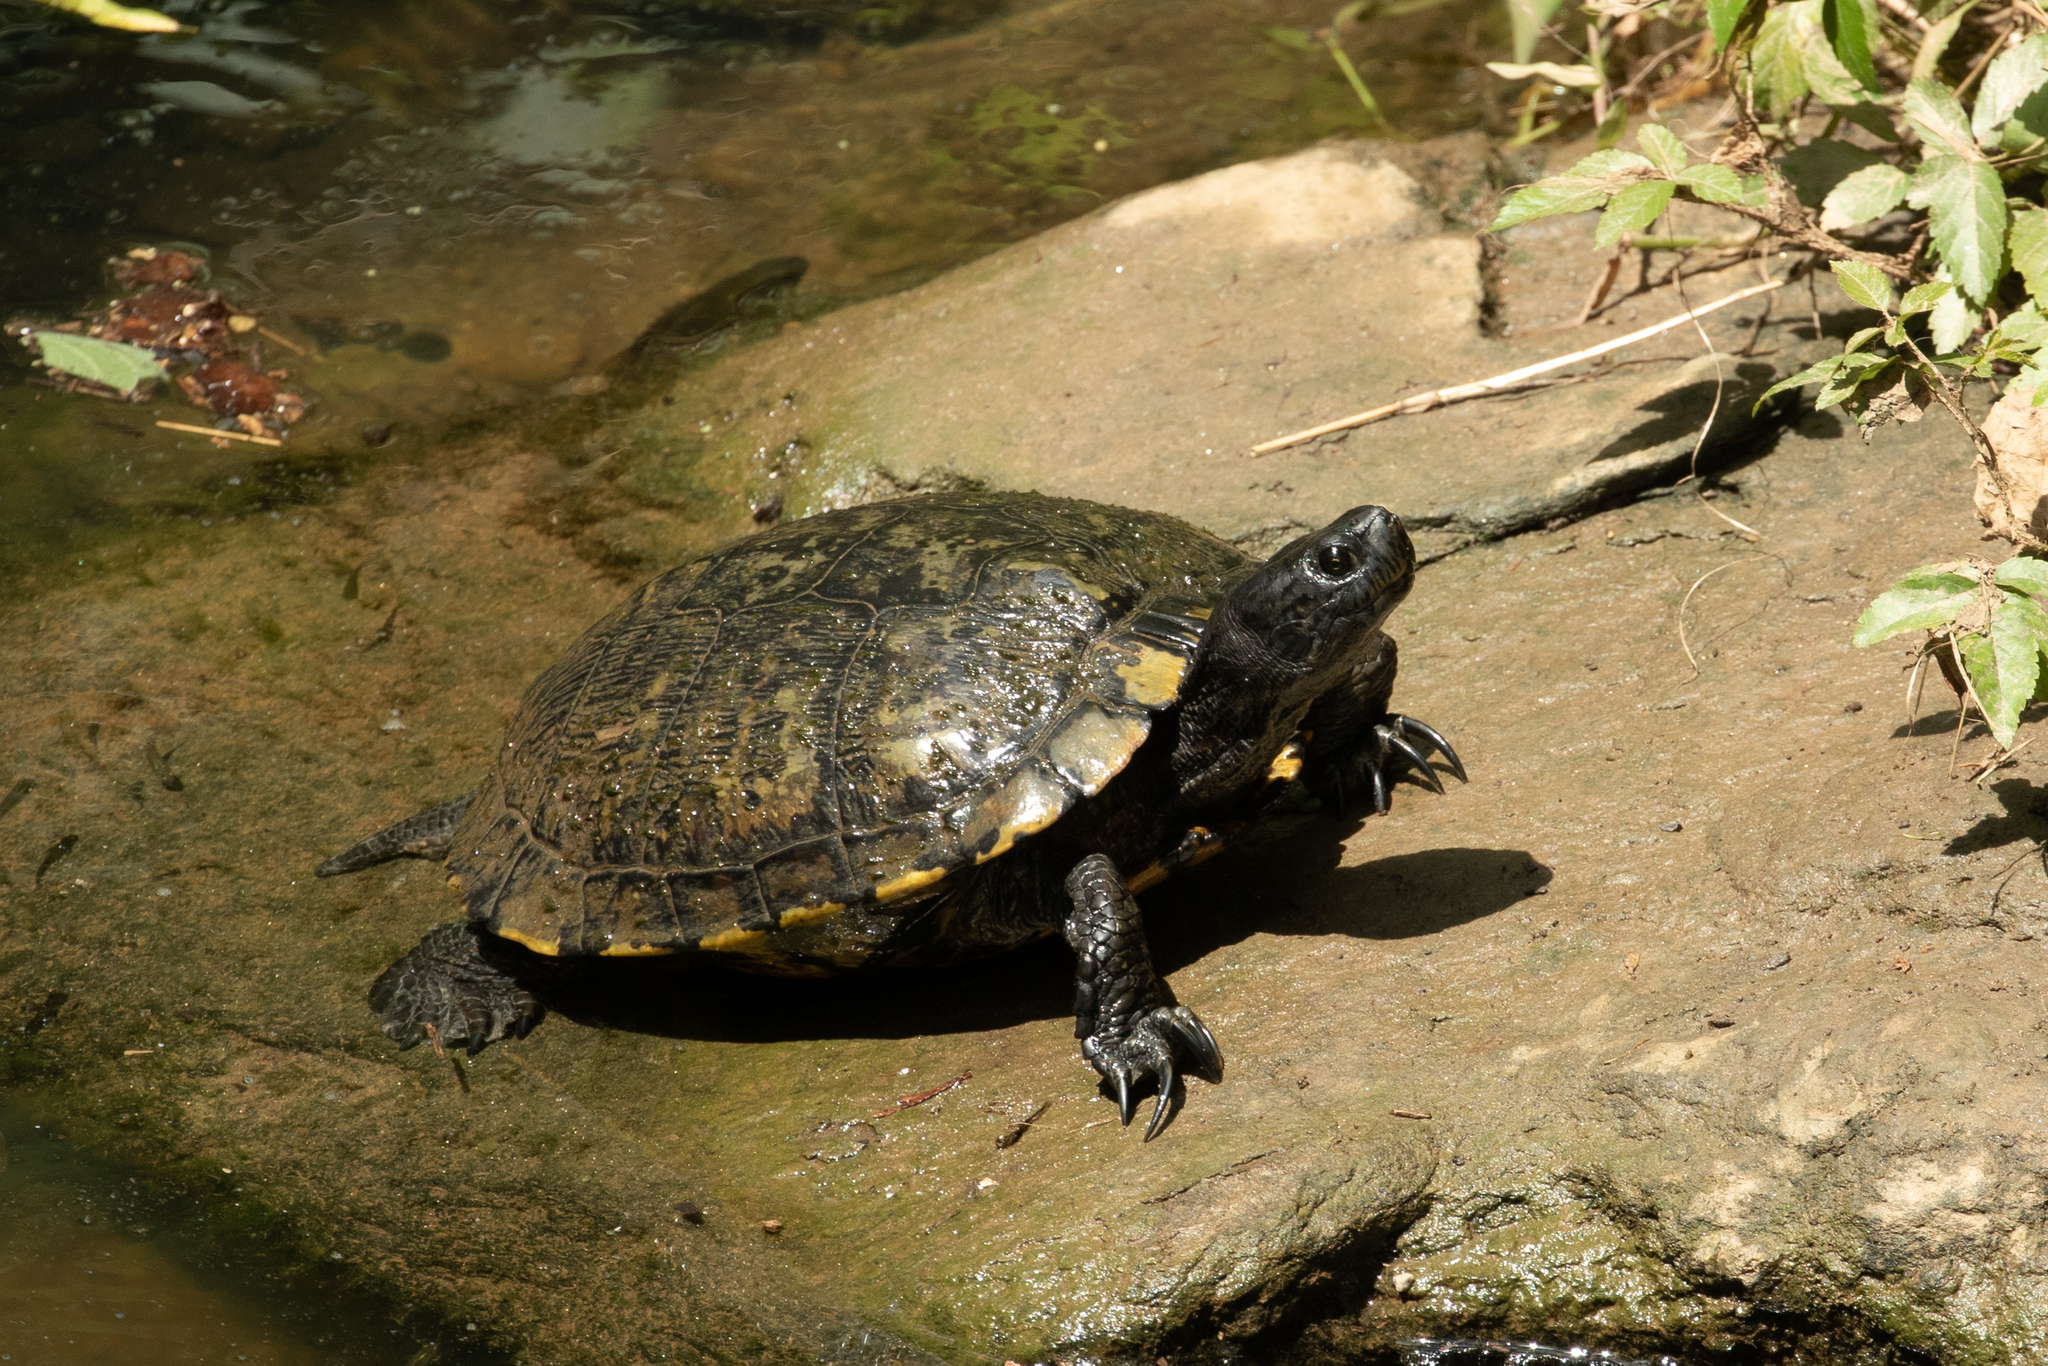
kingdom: Animalia
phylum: Chordata
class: Testudines
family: Emydidae
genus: Trachemys
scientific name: Trachemys scripta
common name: Slider
